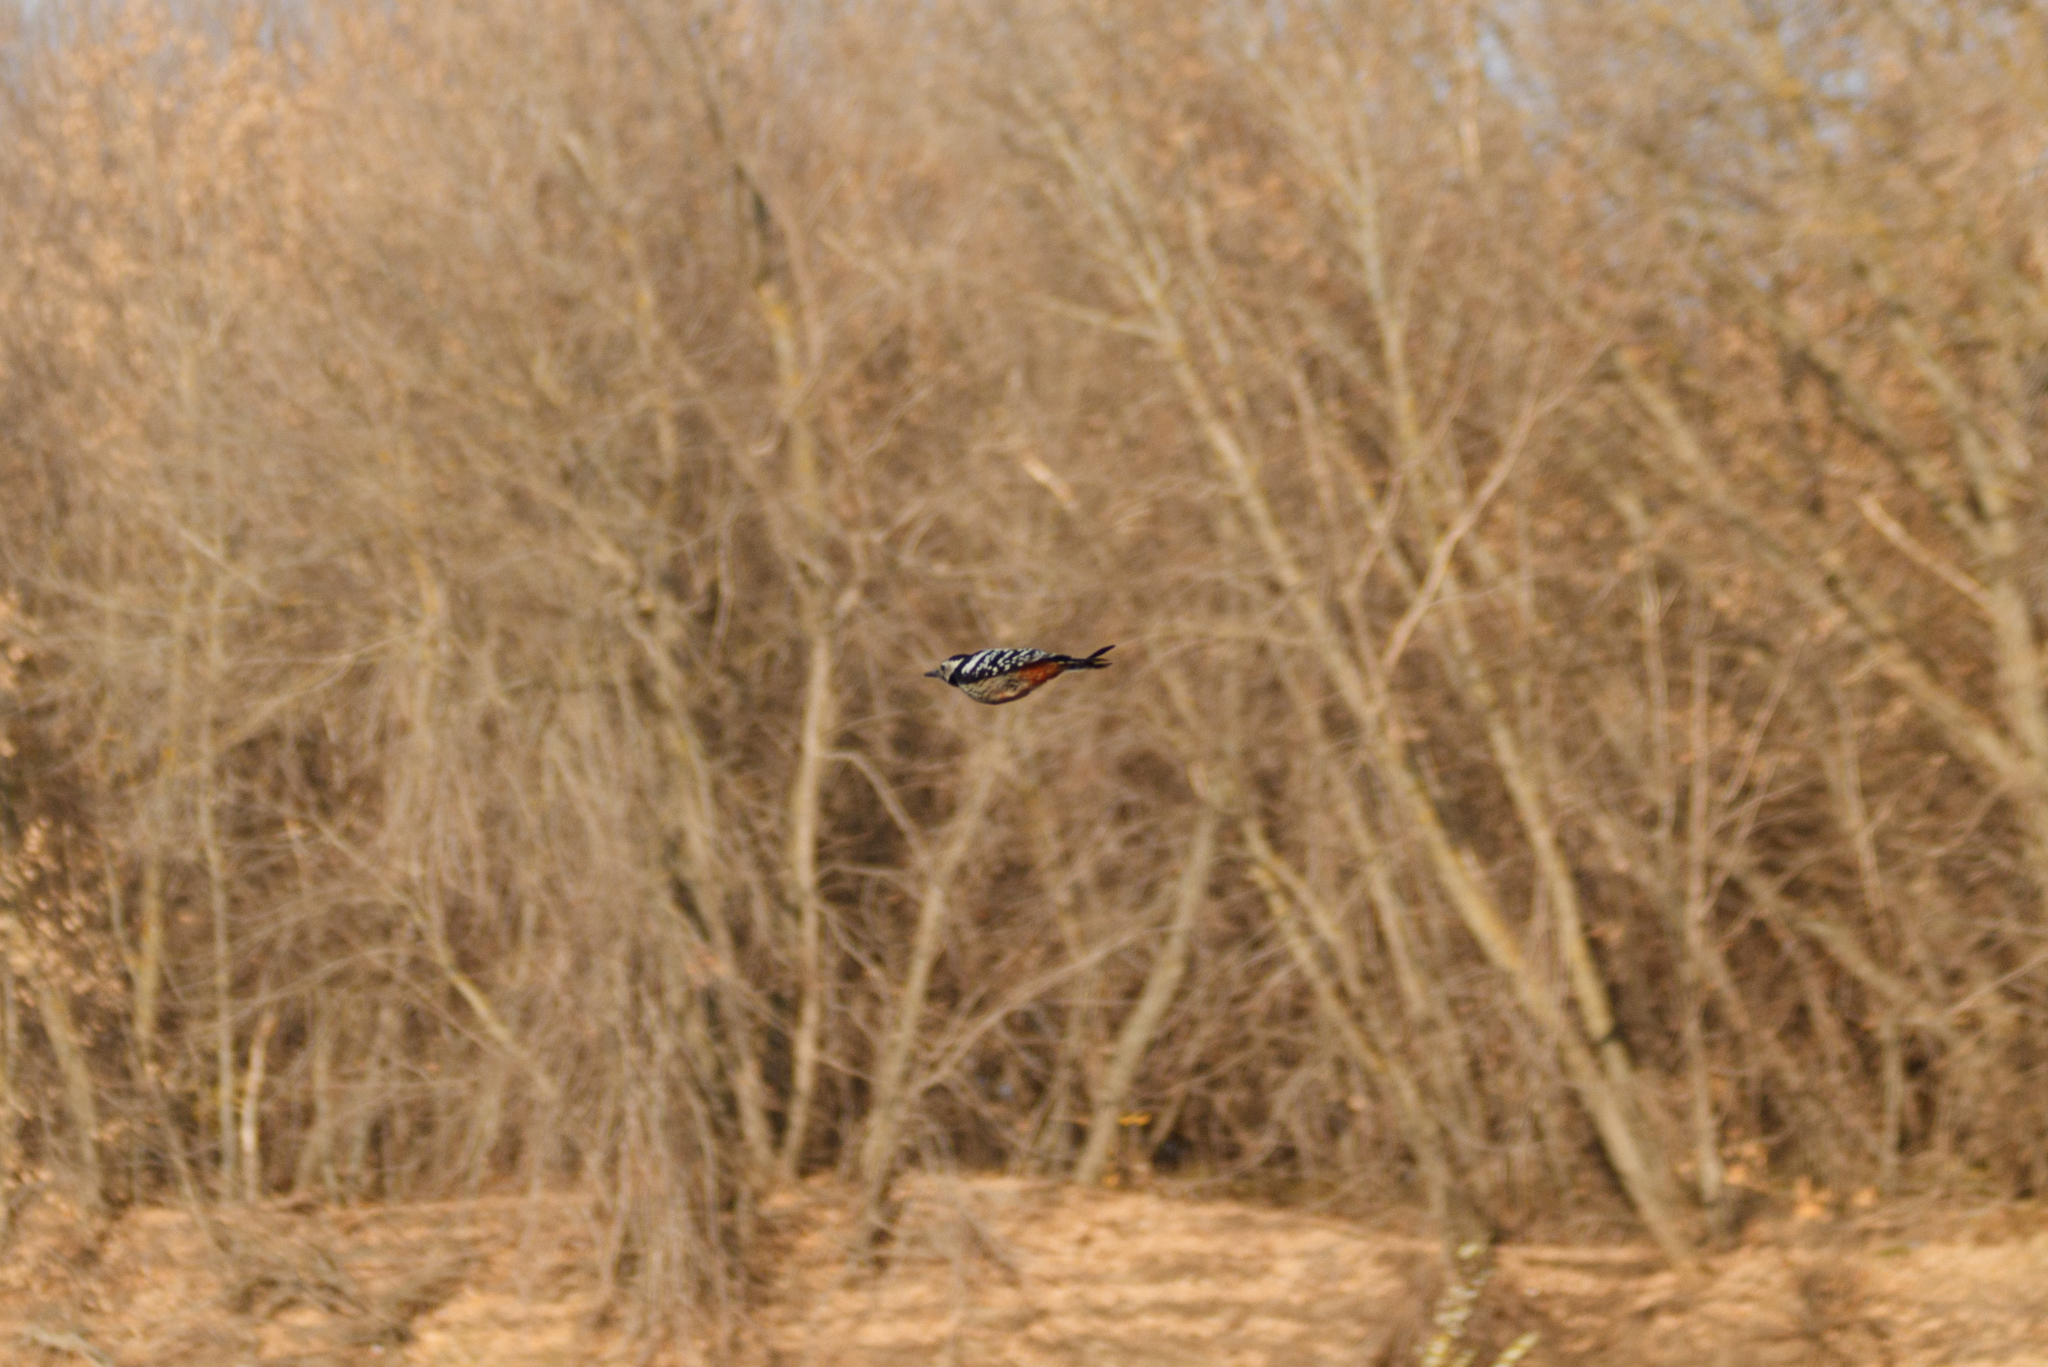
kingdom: Animalia
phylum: Chordata
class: Aves
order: Piciformes
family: Picidae
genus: Dendrocopos
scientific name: Dendrocopos leucotos
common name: White-backed woodpecker
